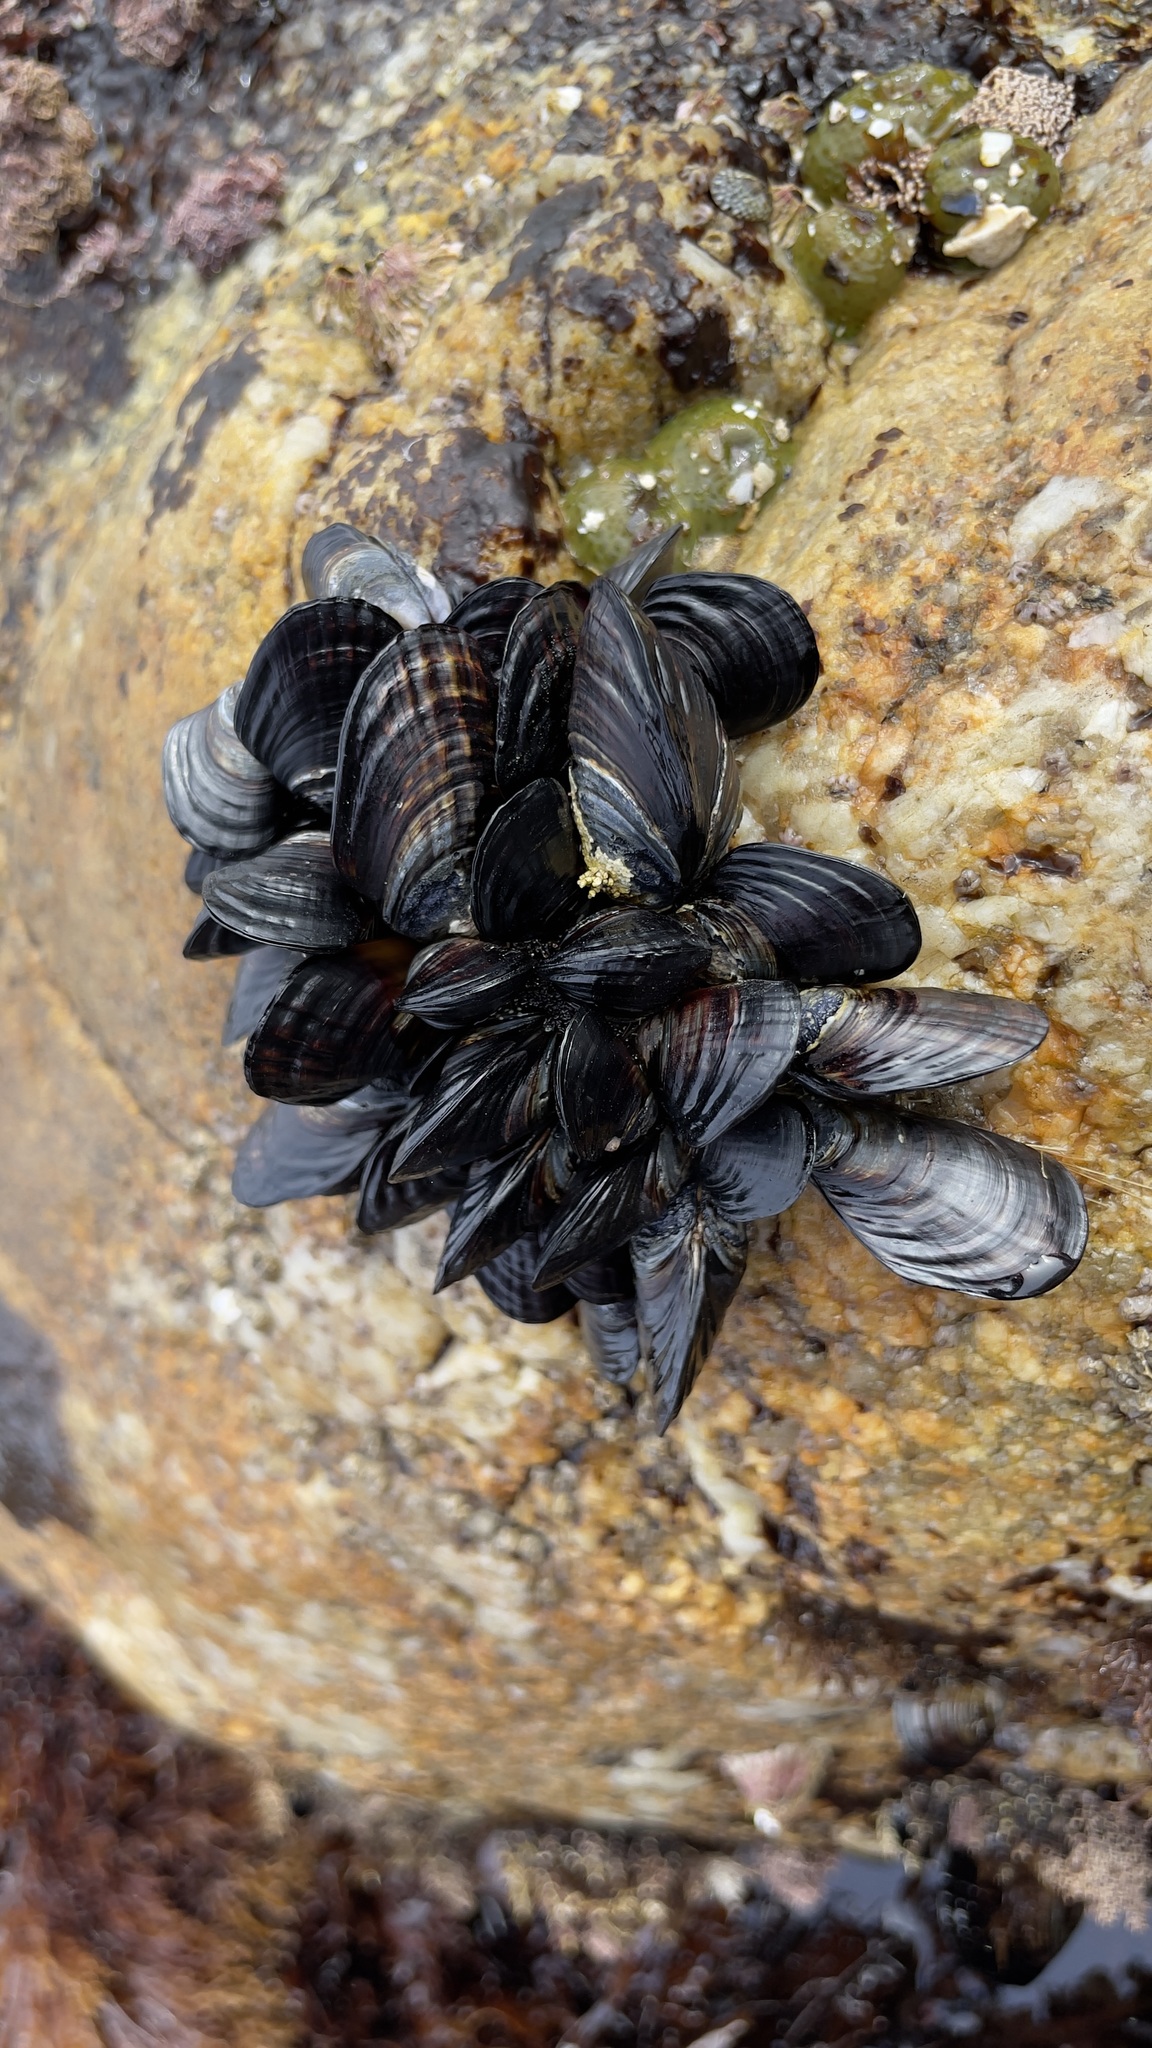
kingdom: Animalia
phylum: Mollusca
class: Bivalvia
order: Mytilida
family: Mytilidae
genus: Mytilus
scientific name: Mytilus californianus
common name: California mussel
